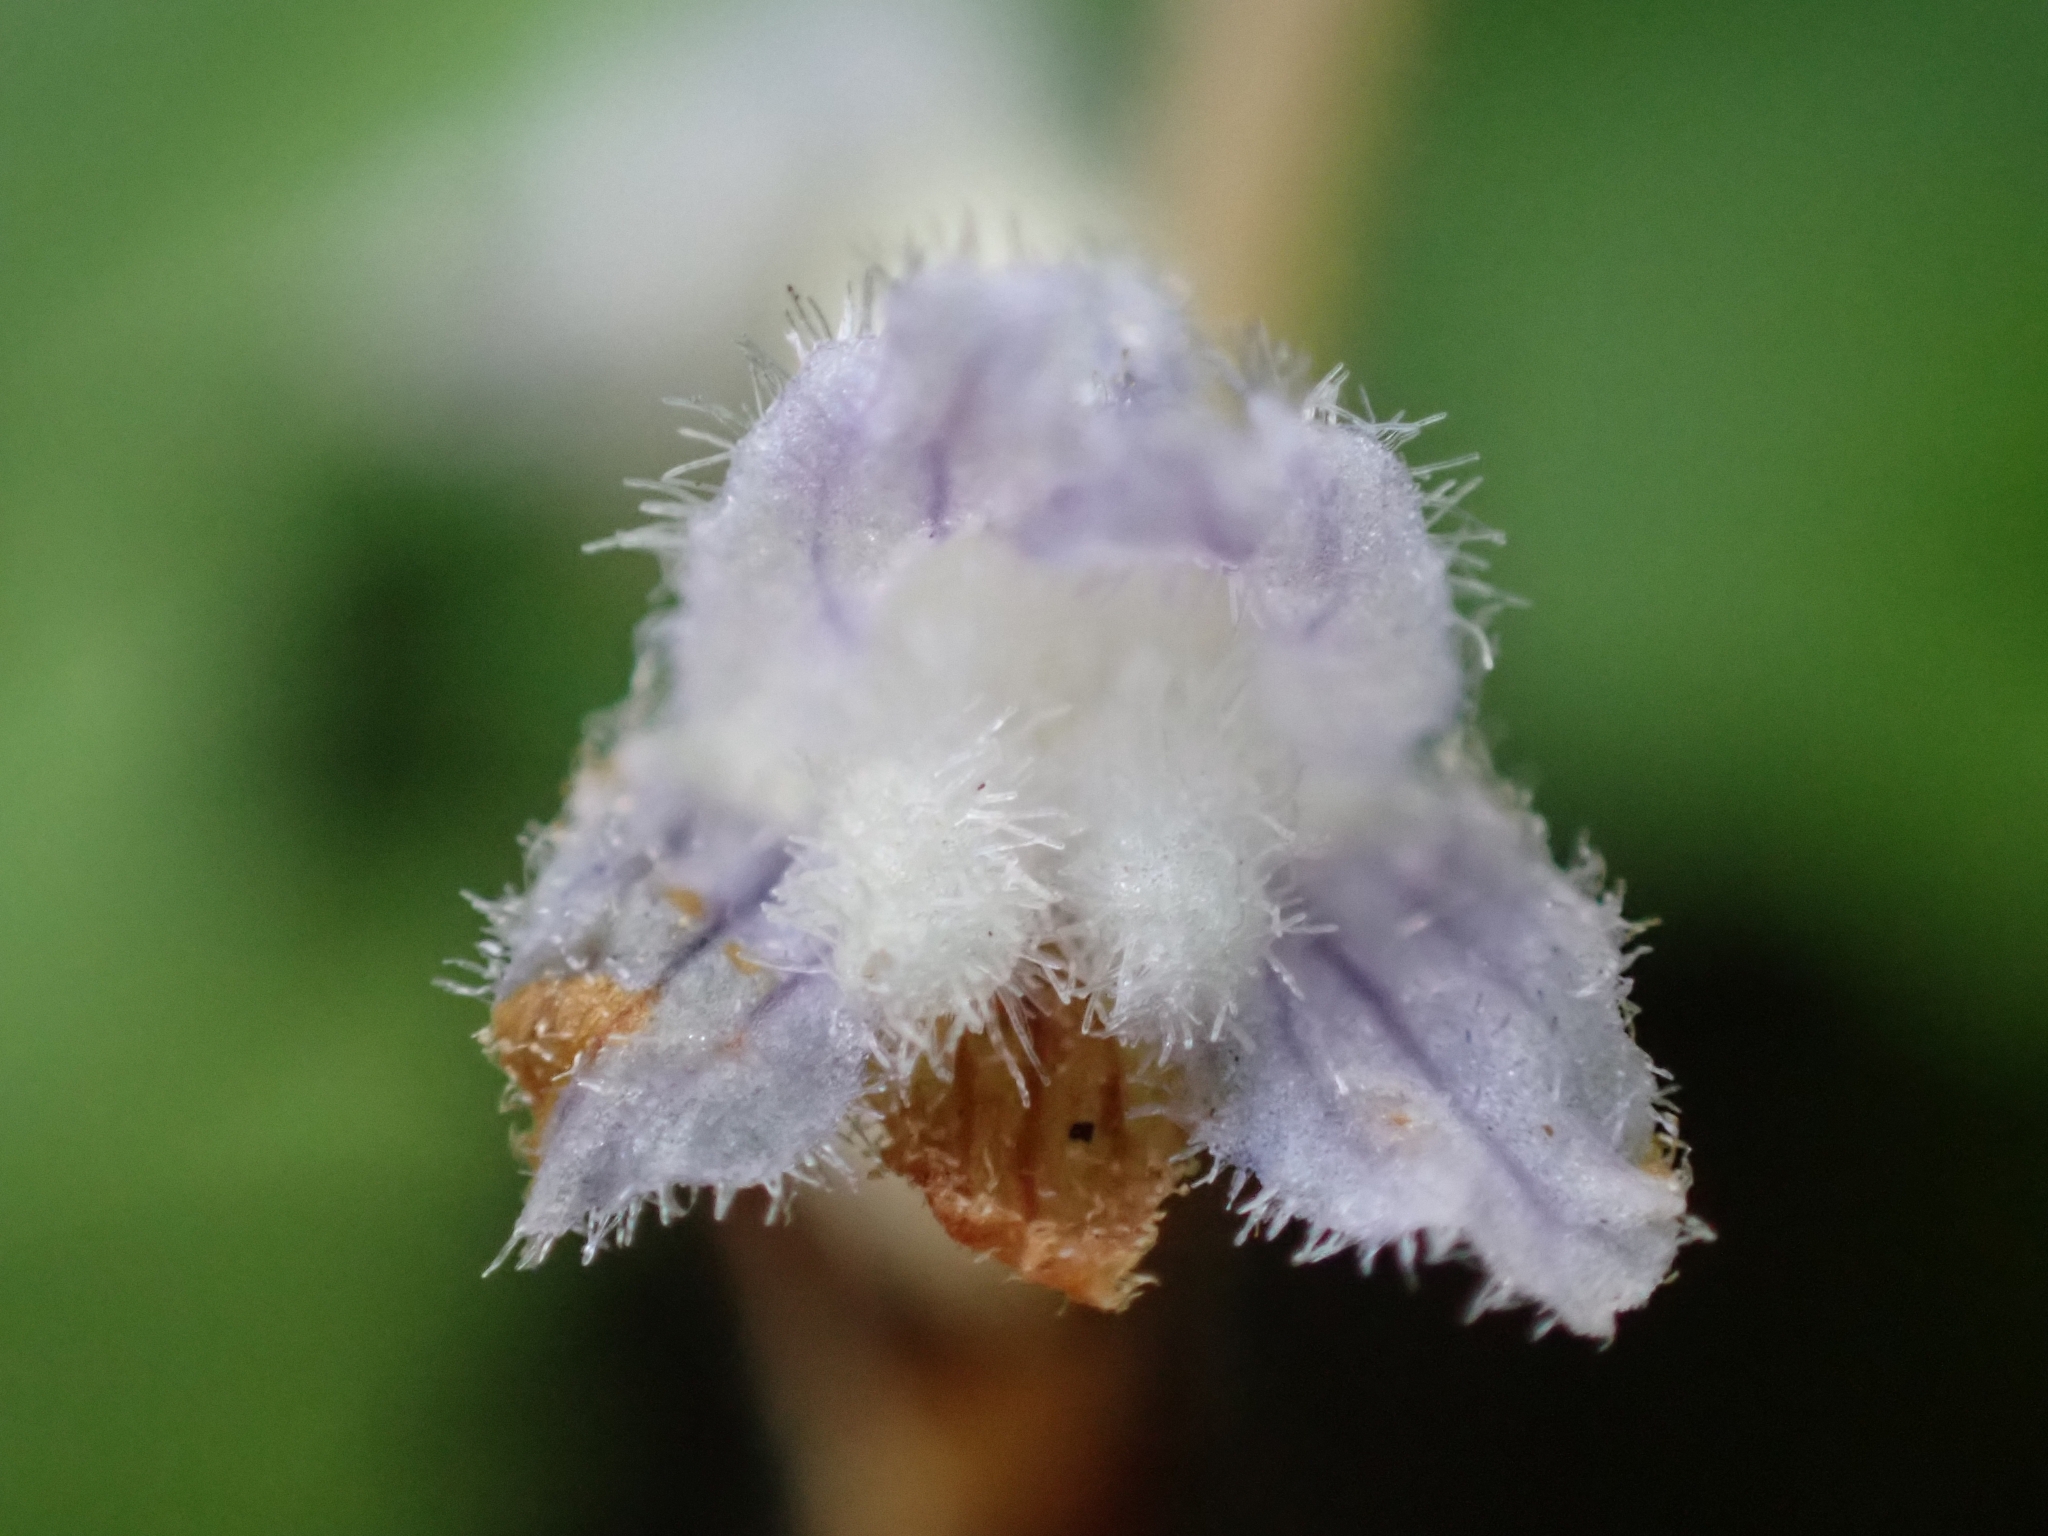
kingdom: Plantae
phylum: Tracheophyta
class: Magnoliopsida
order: Lamiales
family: Orobanchaceae
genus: Phelipanche
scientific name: Phelipanche mutelii
